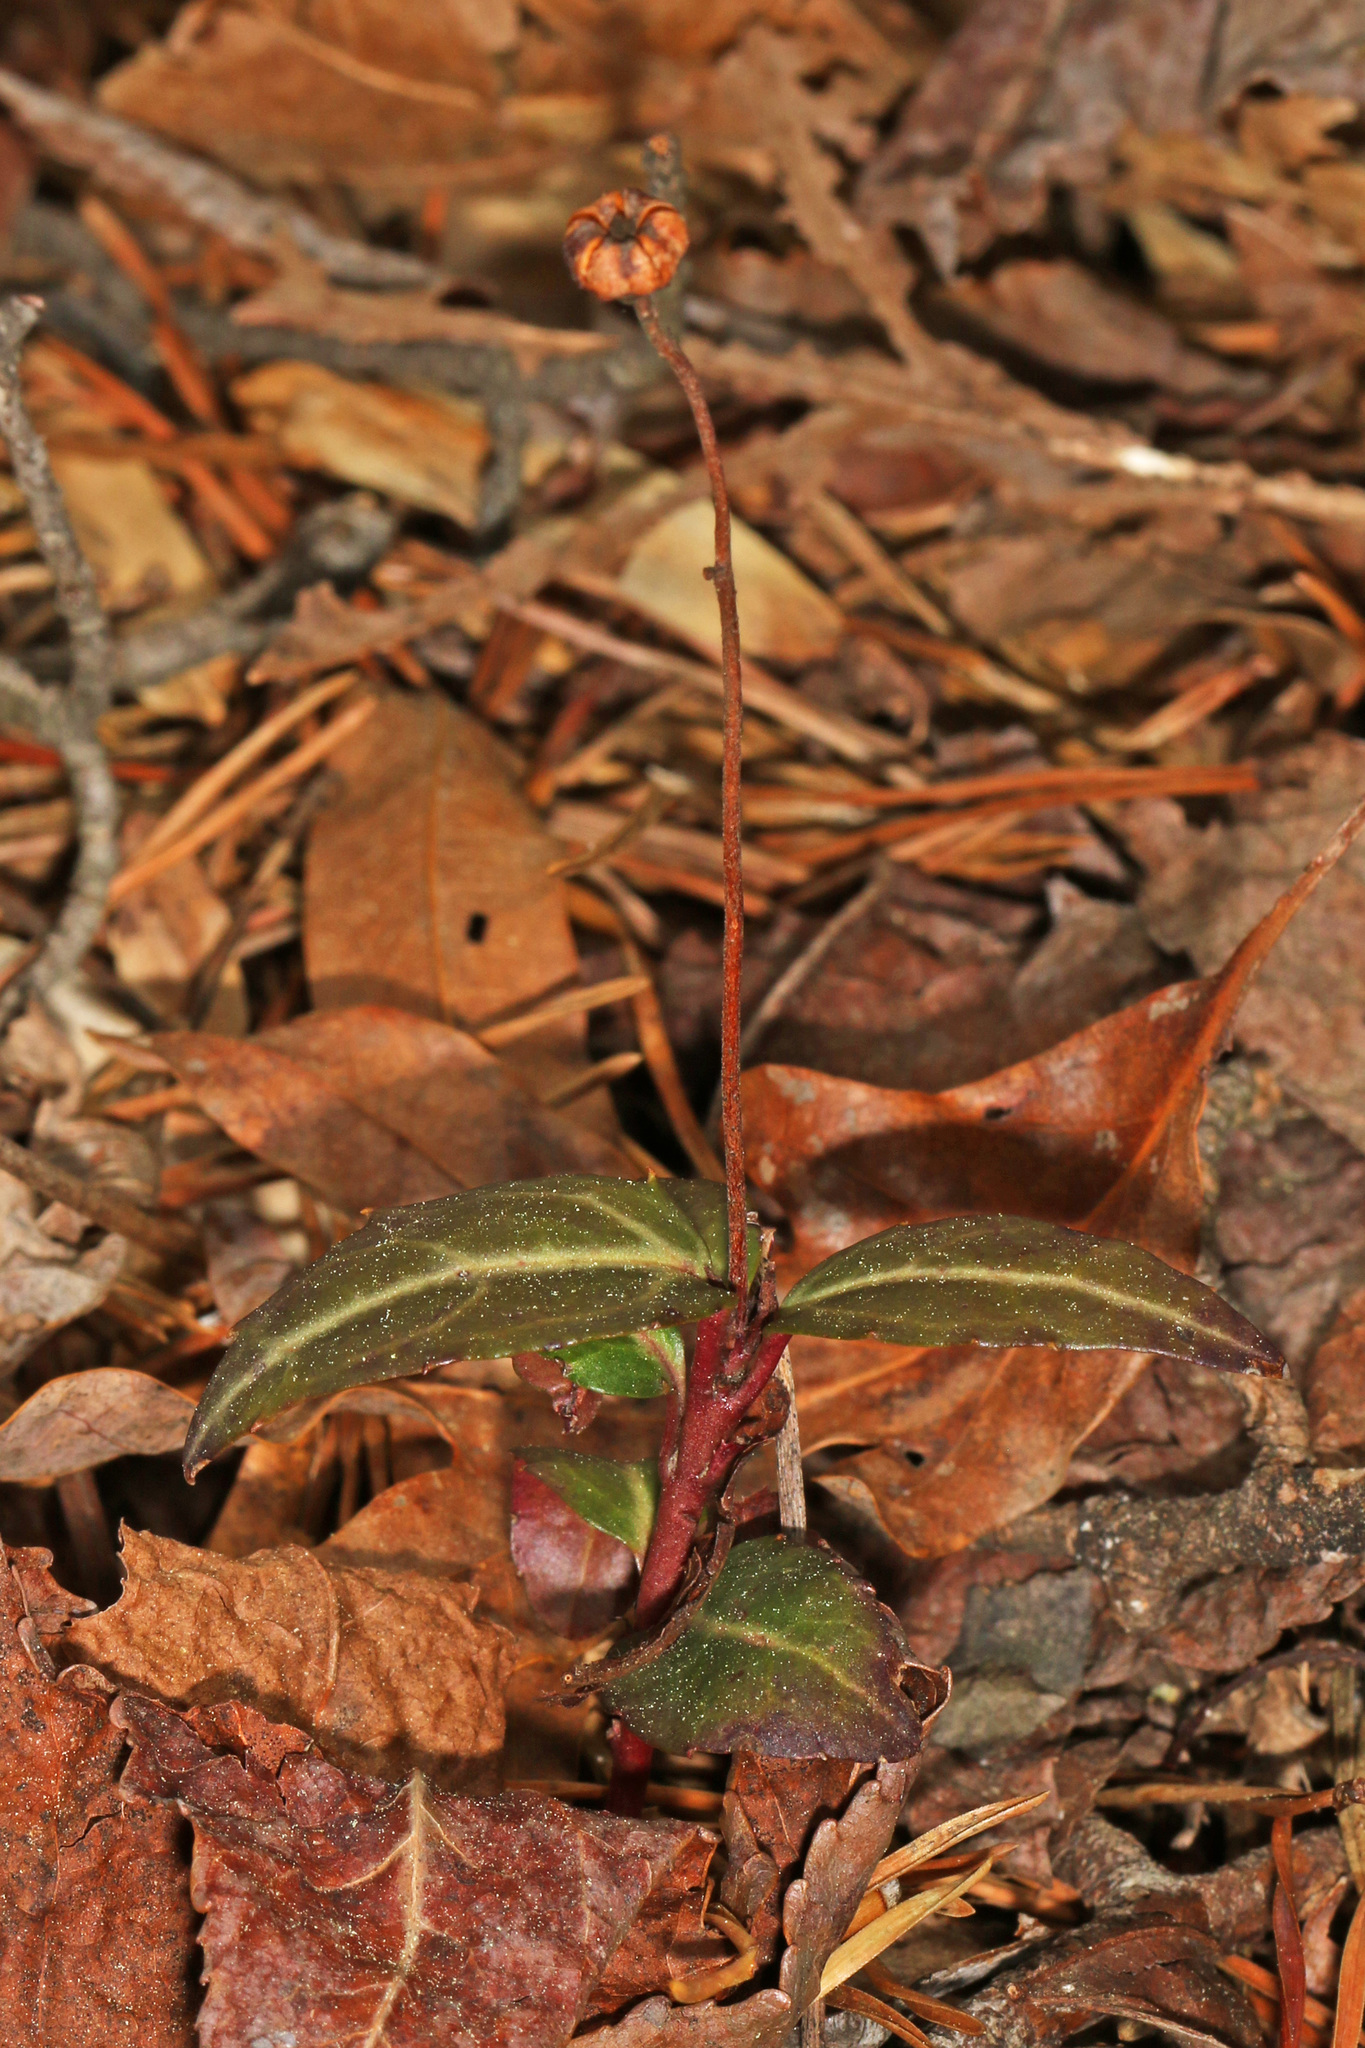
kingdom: Plantae
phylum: Tracheophyta
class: Magnoliopsida
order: Ericales
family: Ericaceae
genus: Chimaphila
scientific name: Chimaphila maculata
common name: Spotted pipsissewa
